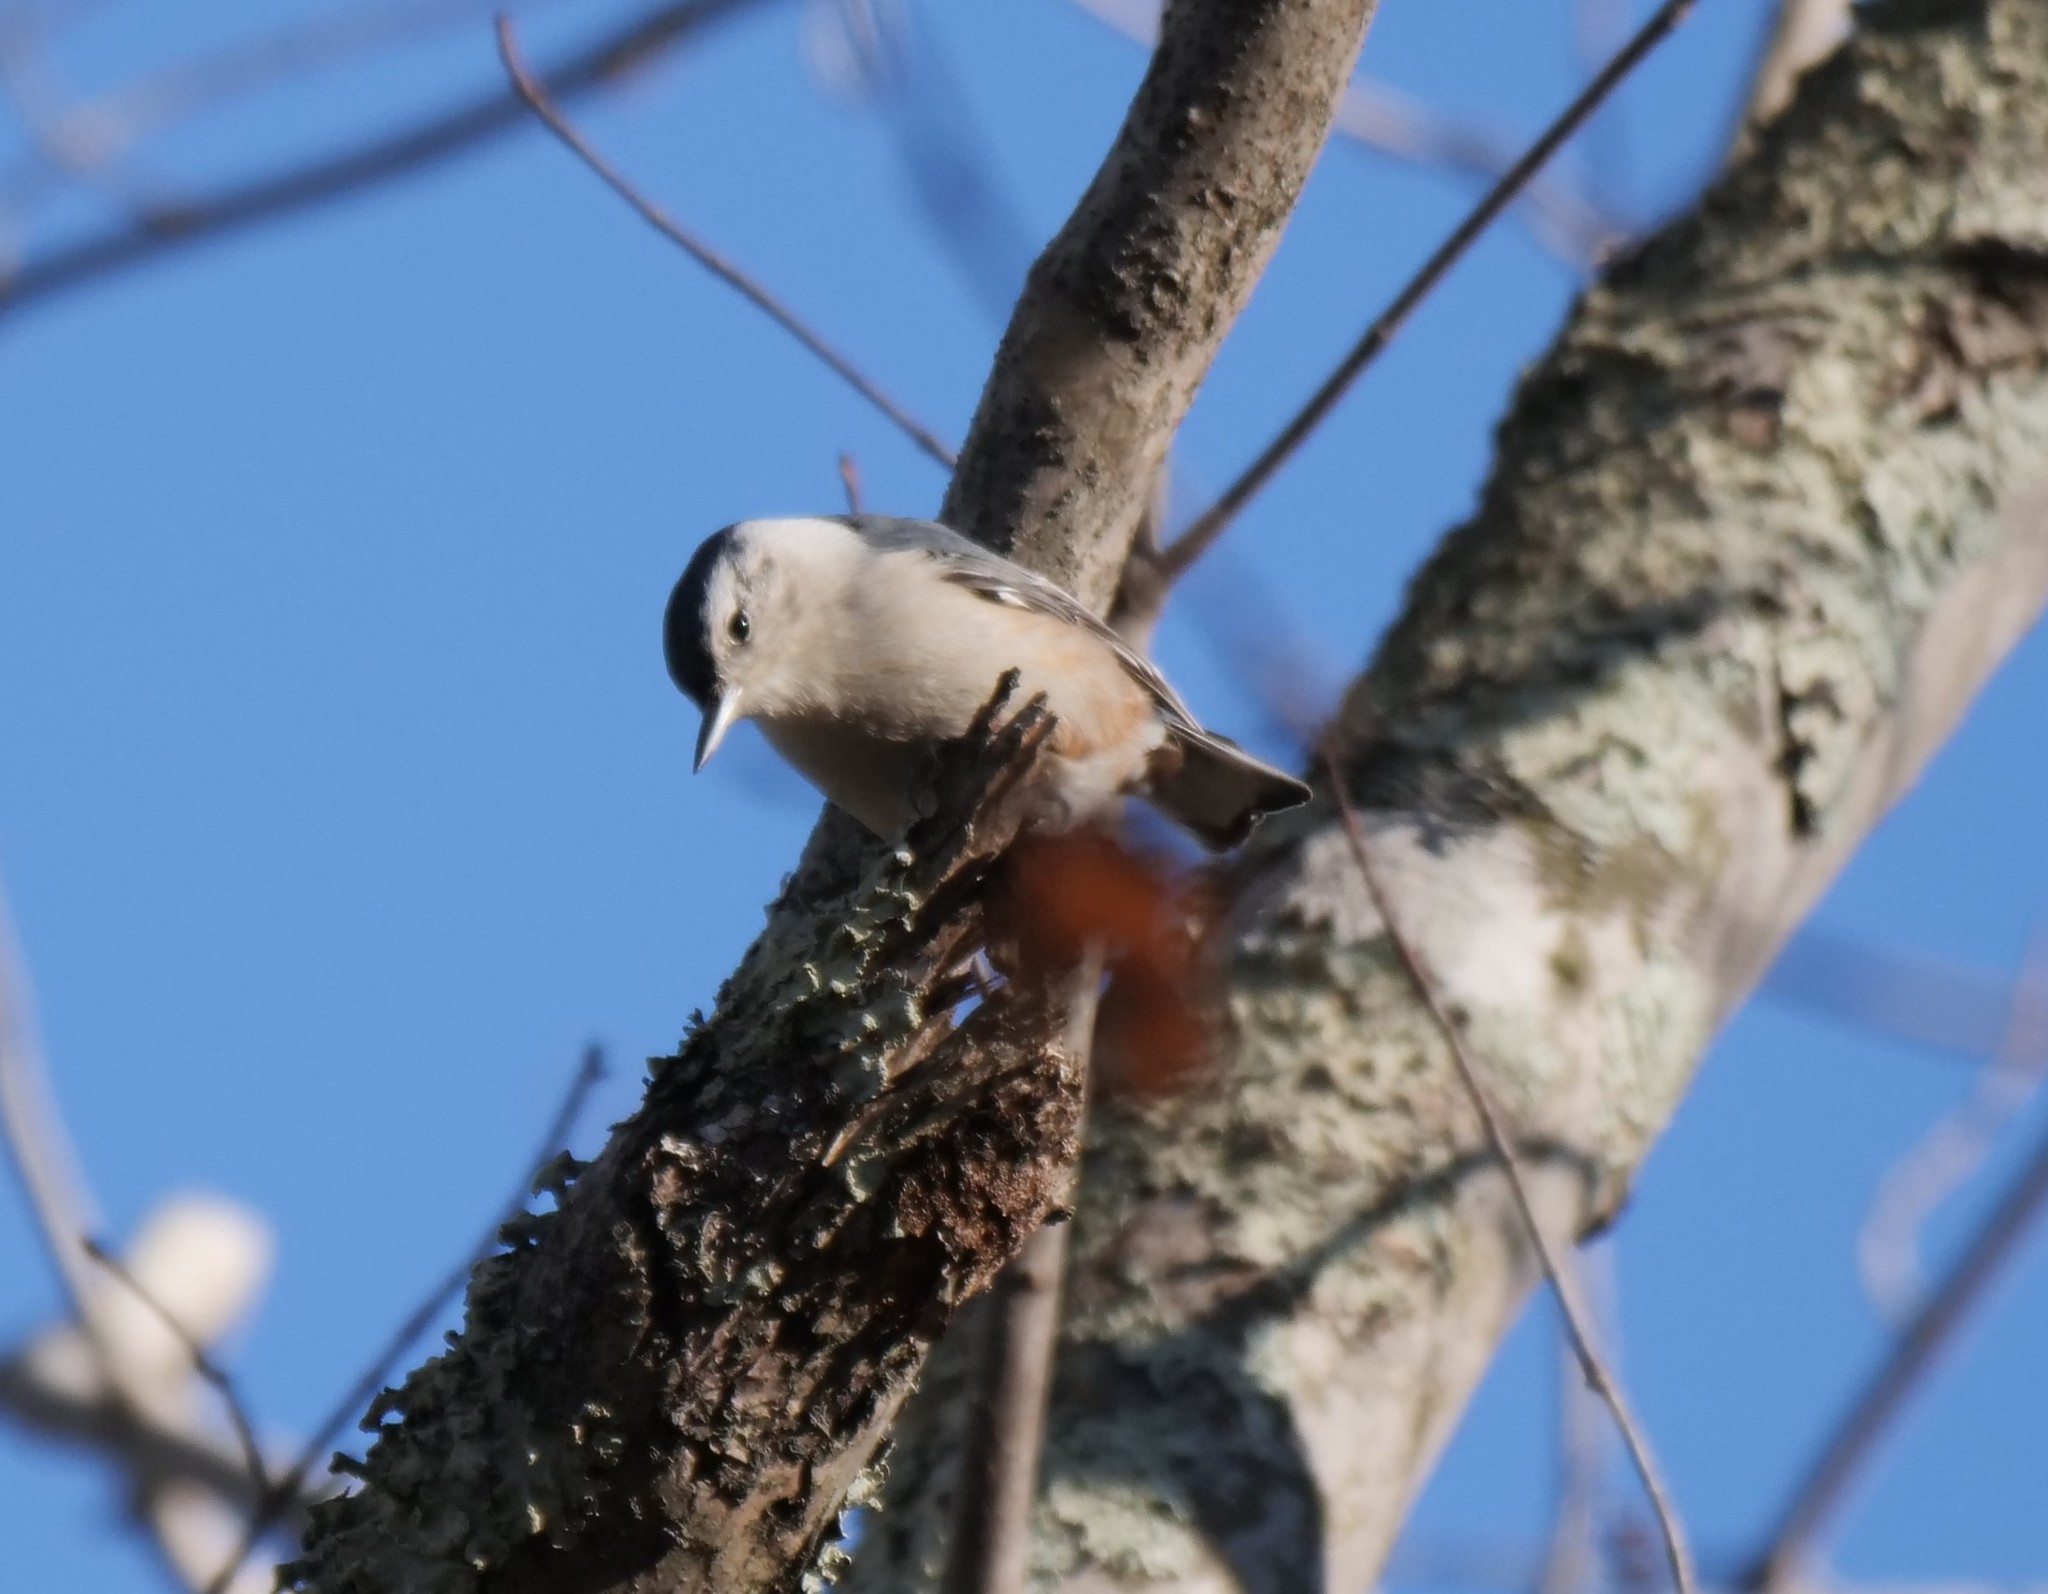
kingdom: Animalia
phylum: Chordata
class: Aves
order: Passeriformes
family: Sittidae
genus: Sitta
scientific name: Sitta carolinensis
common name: White-breasted nuthatch
